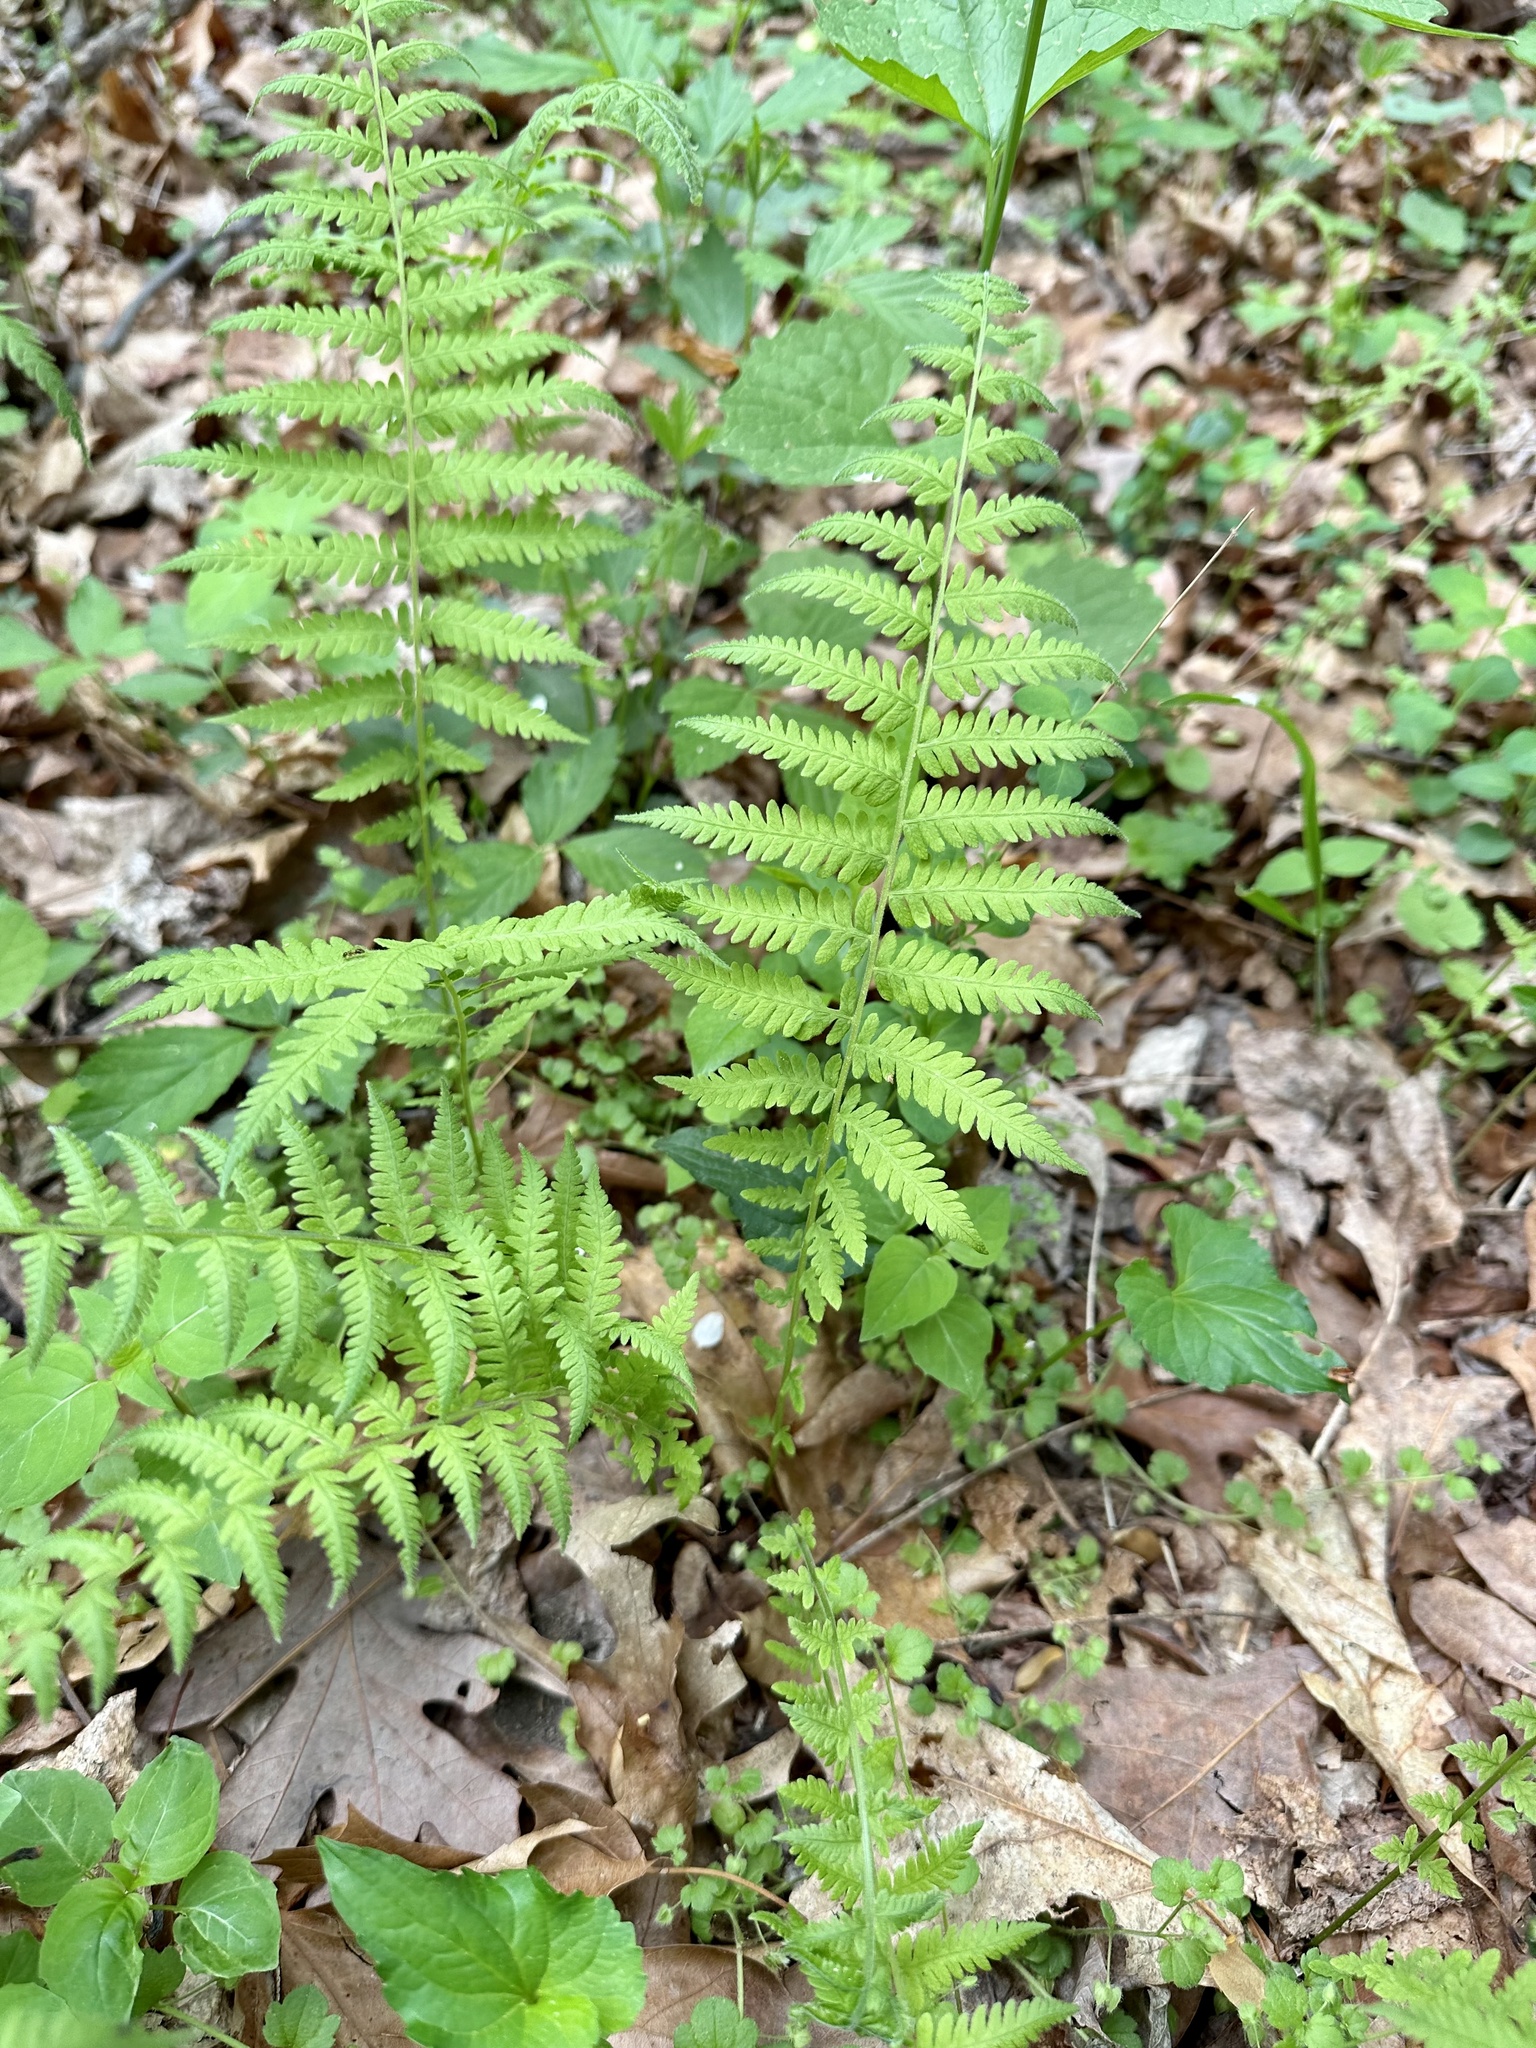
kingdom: Plantae
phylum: Tracheophyta
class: Polypodiopsida
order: Polypodiales
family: Thelypteridaceae
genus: Amauropelta
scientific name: Amauropelta noveboracensis
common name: New york fern
